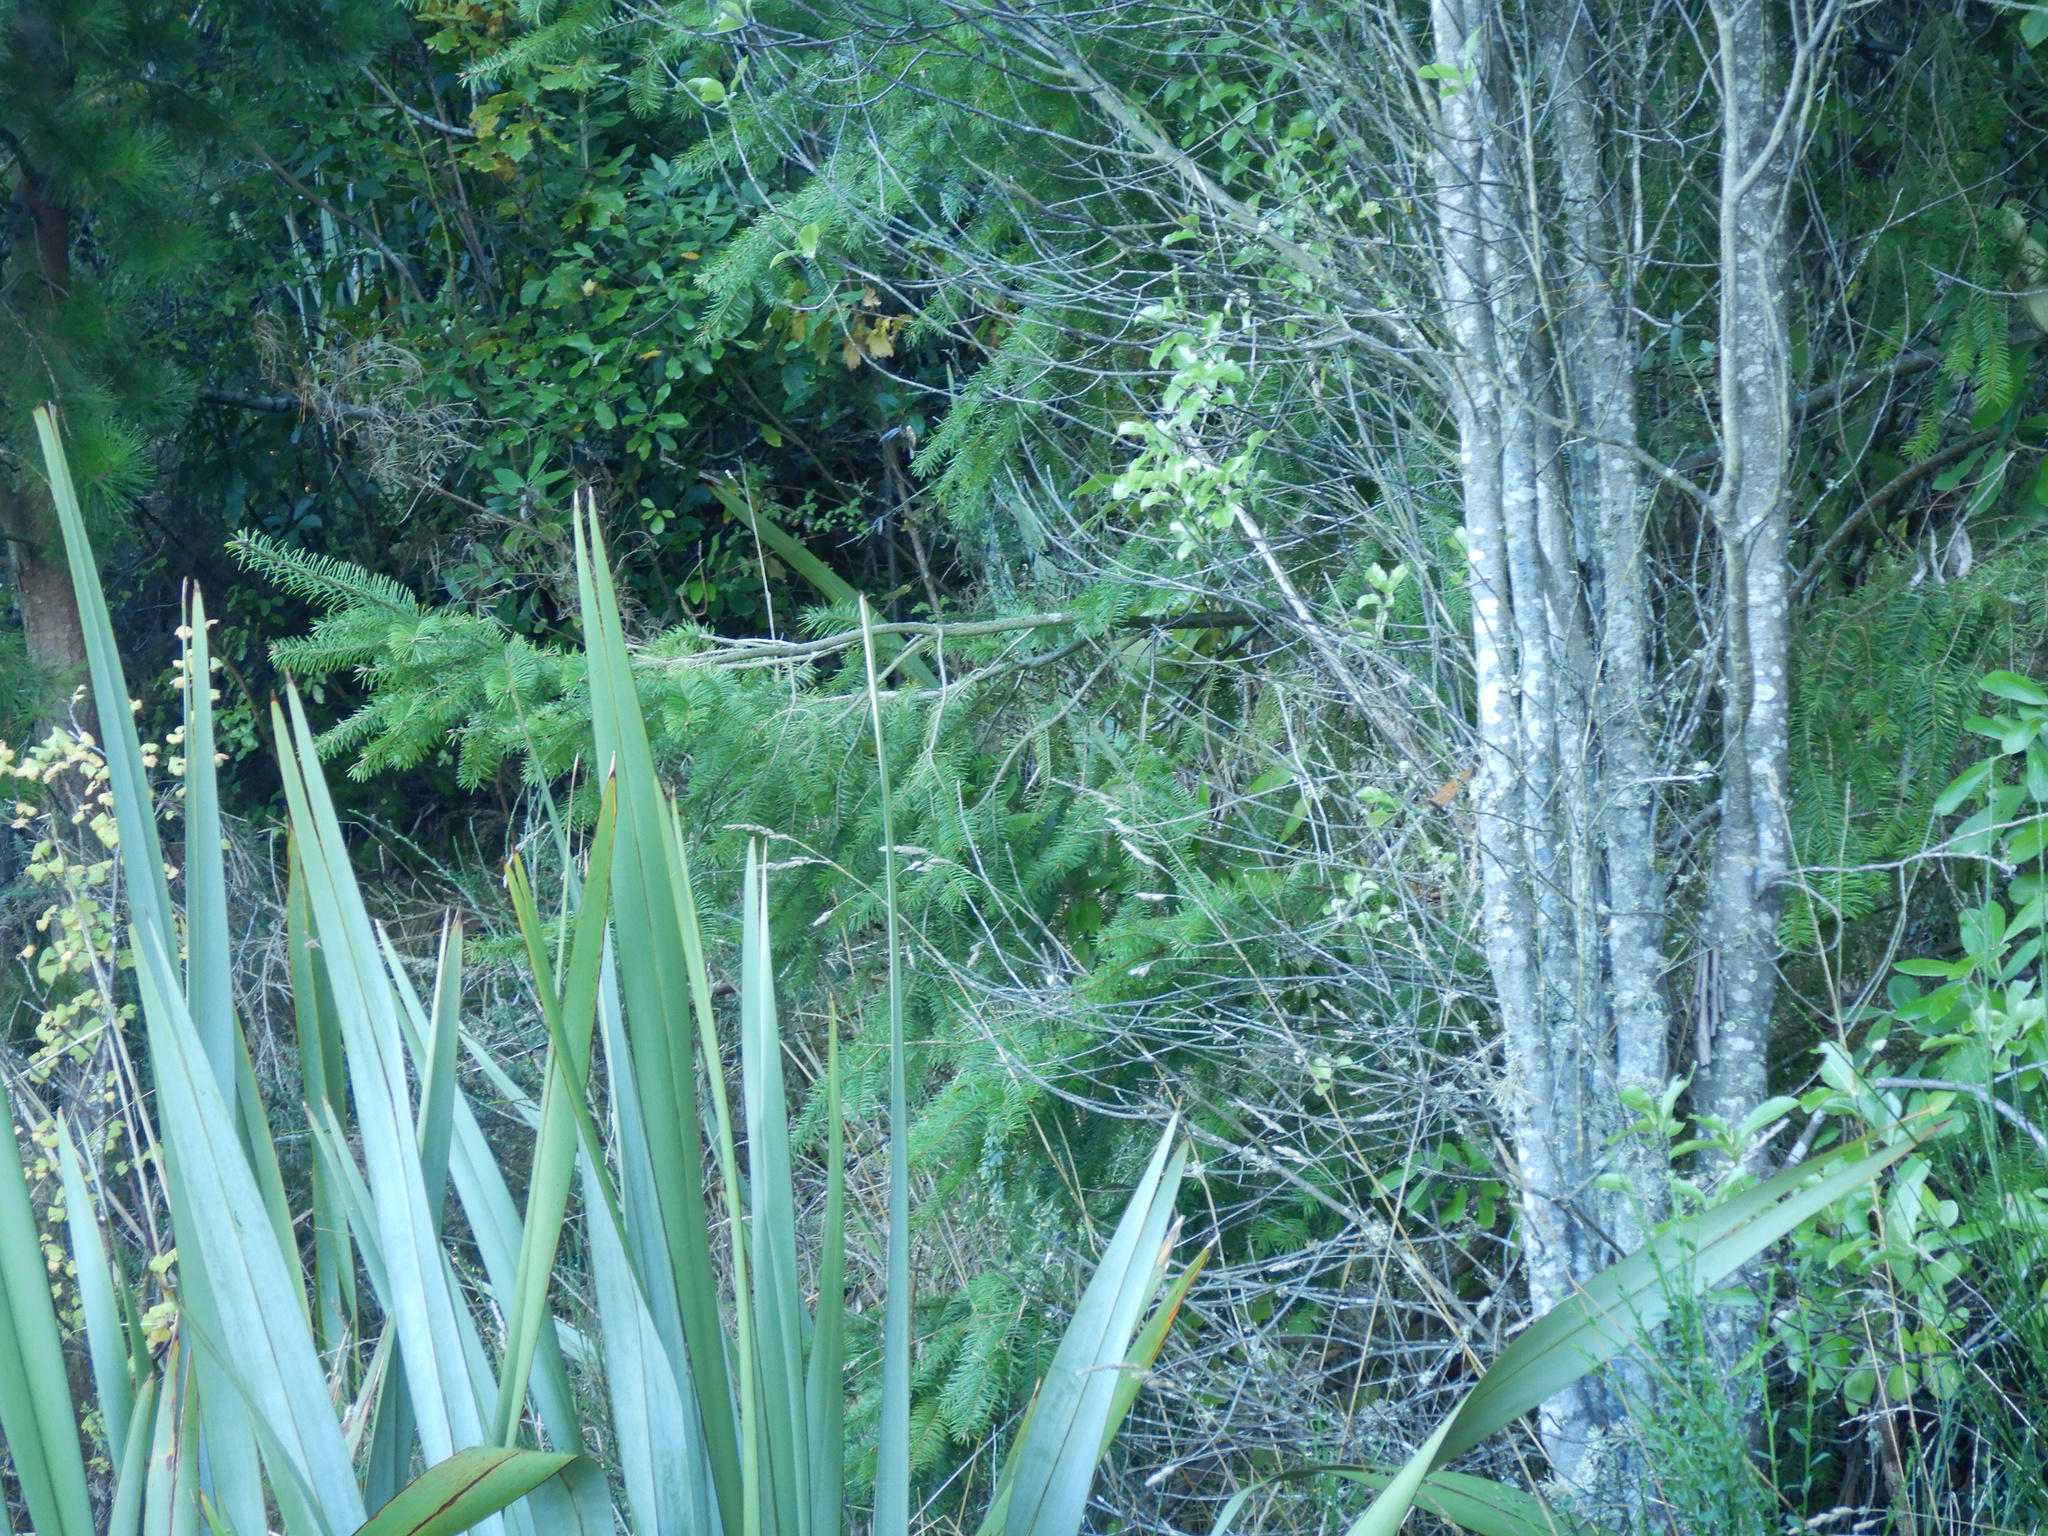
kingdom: Plantae
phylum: Tracheophyta
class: Pinopsida
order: Pinales
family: Pinaceae
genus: Pseudotsuga
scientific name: Pseudotsuga menziesii
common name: Douglas fir
